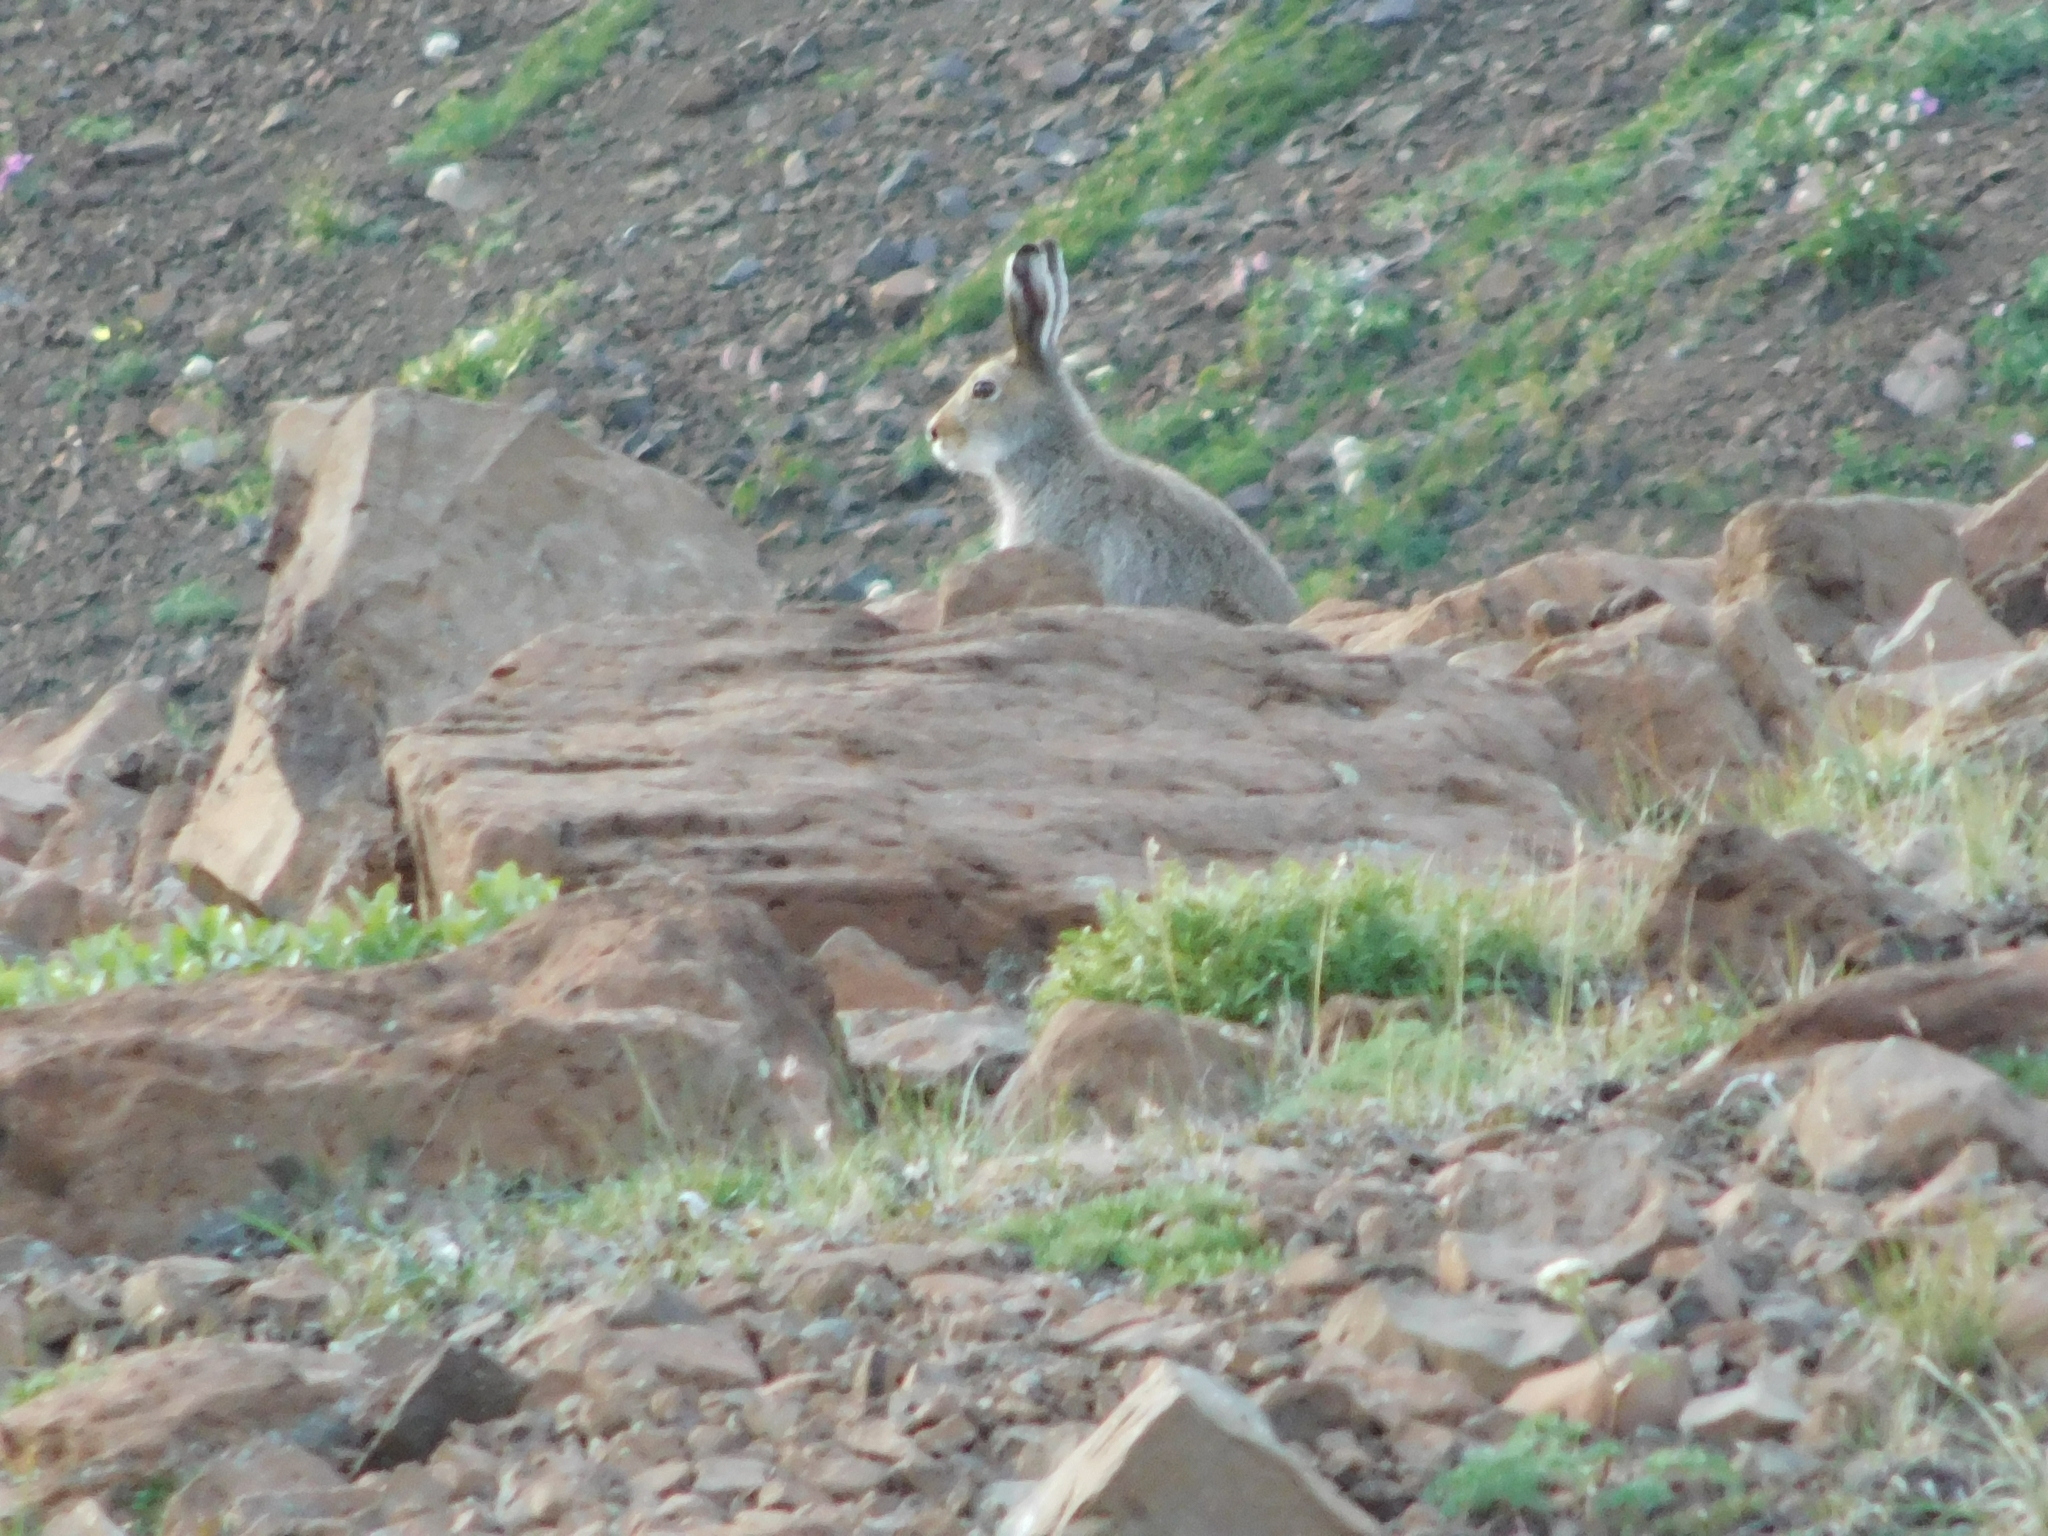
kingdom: Animalia
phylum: Chordata
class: Mammalia
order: Lagomorpha
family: Leporidae
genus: Lepus
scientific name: Lepus timidus
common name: Mountain hare
